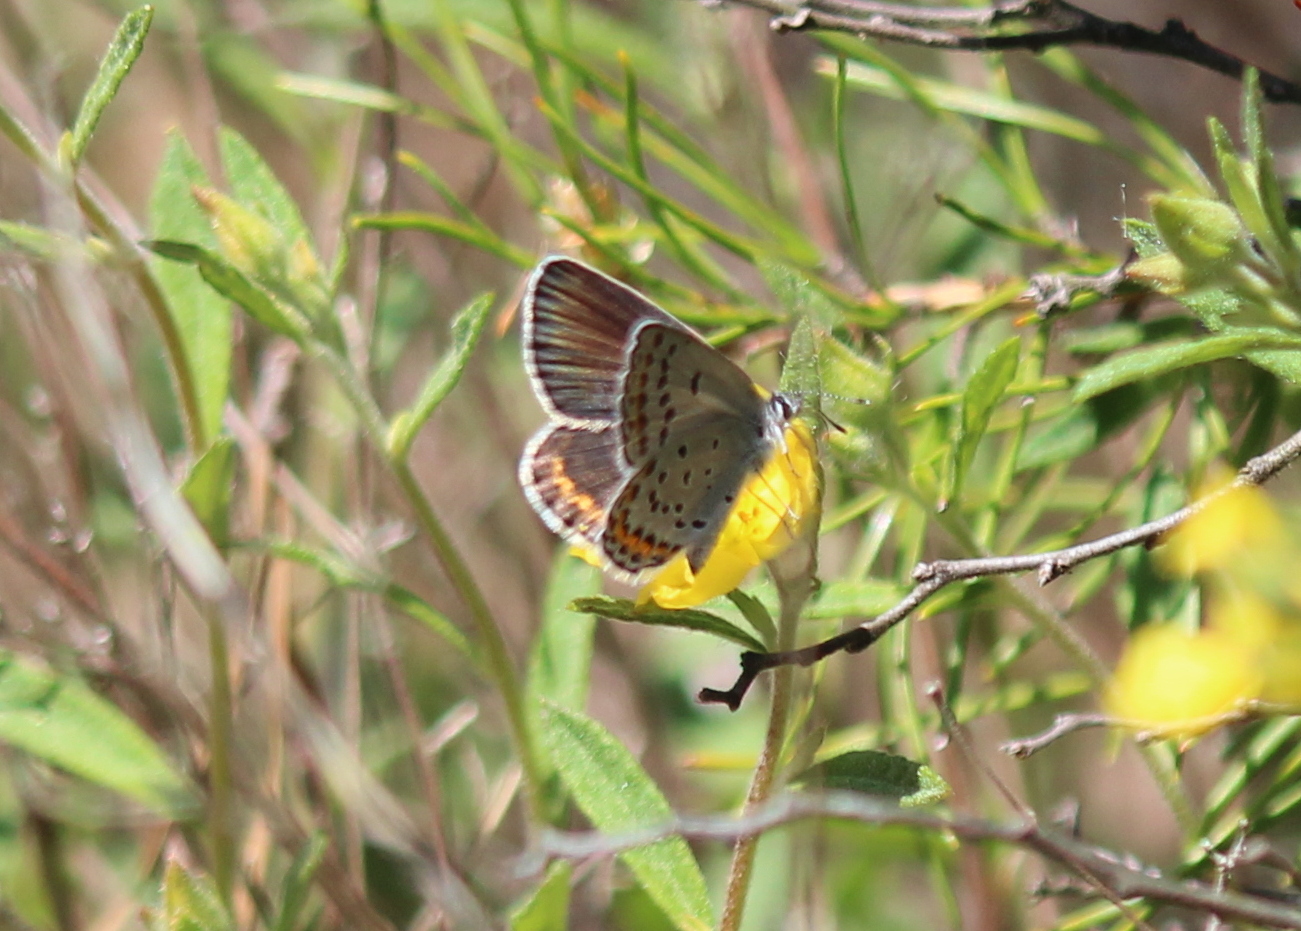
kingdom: Animalia
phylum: Arthropoda
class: Insecta
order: Lepidoptera
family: Lycaenidae
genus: Plebejus
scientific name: Plebejus samuelis
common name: Karner blue
